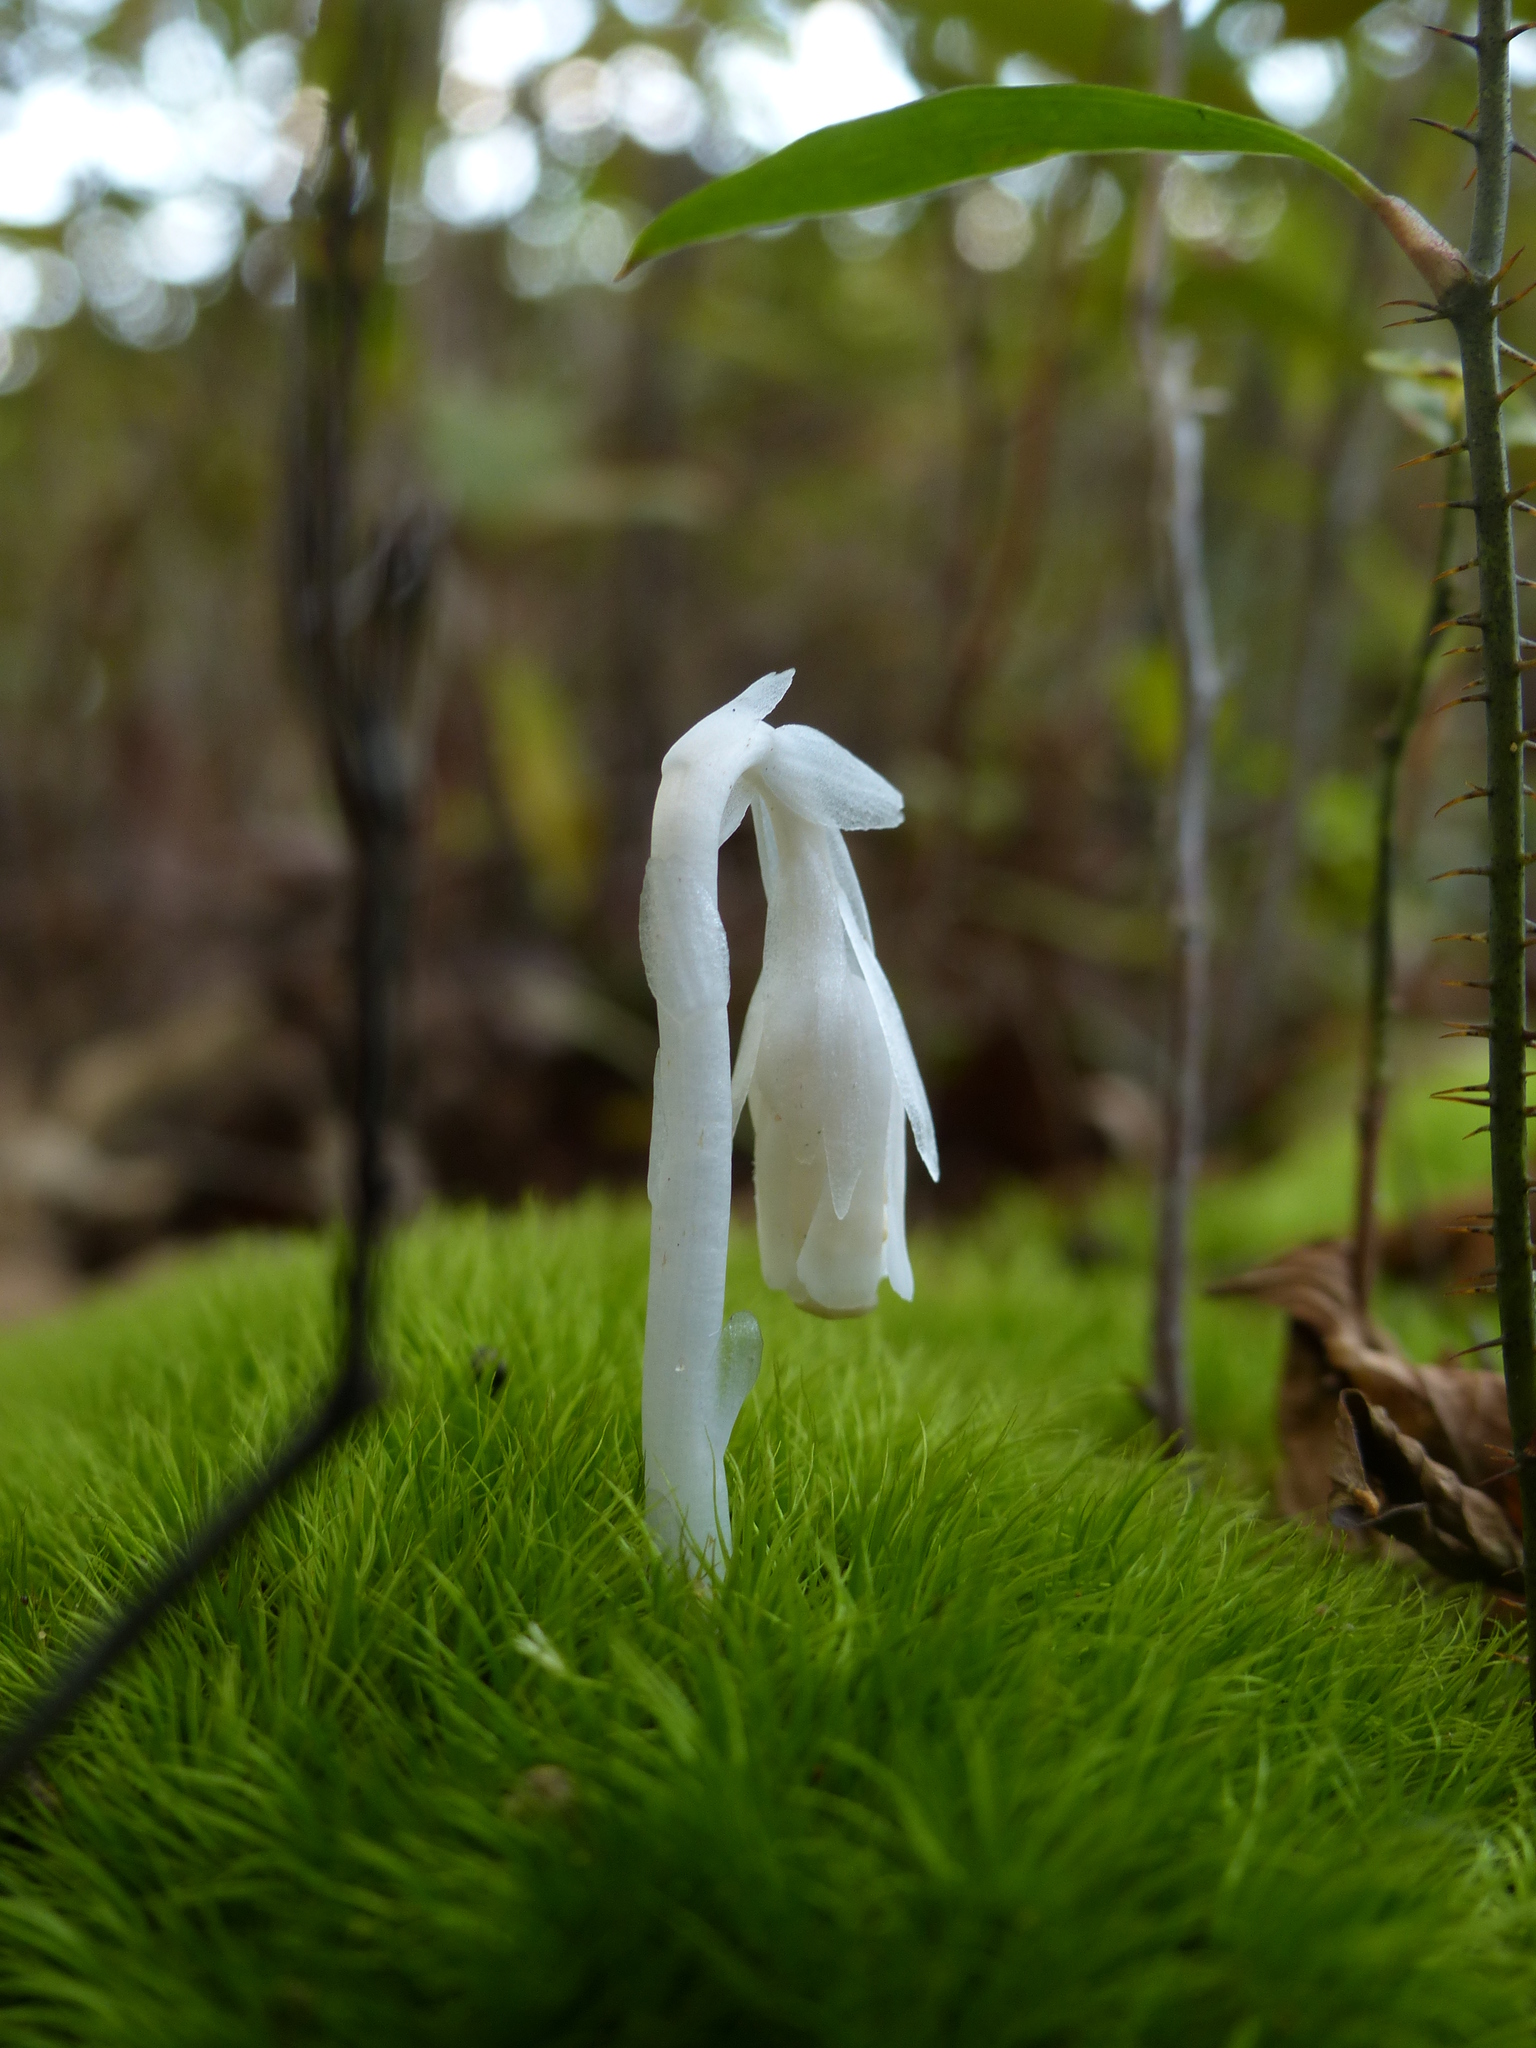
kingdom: Plantae
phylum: Tracheophyta
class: Magnoliopsida
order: Ericales
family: Ericaceae
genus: Monotropa
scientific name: Monotropa uniflora
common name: Convulsion root
